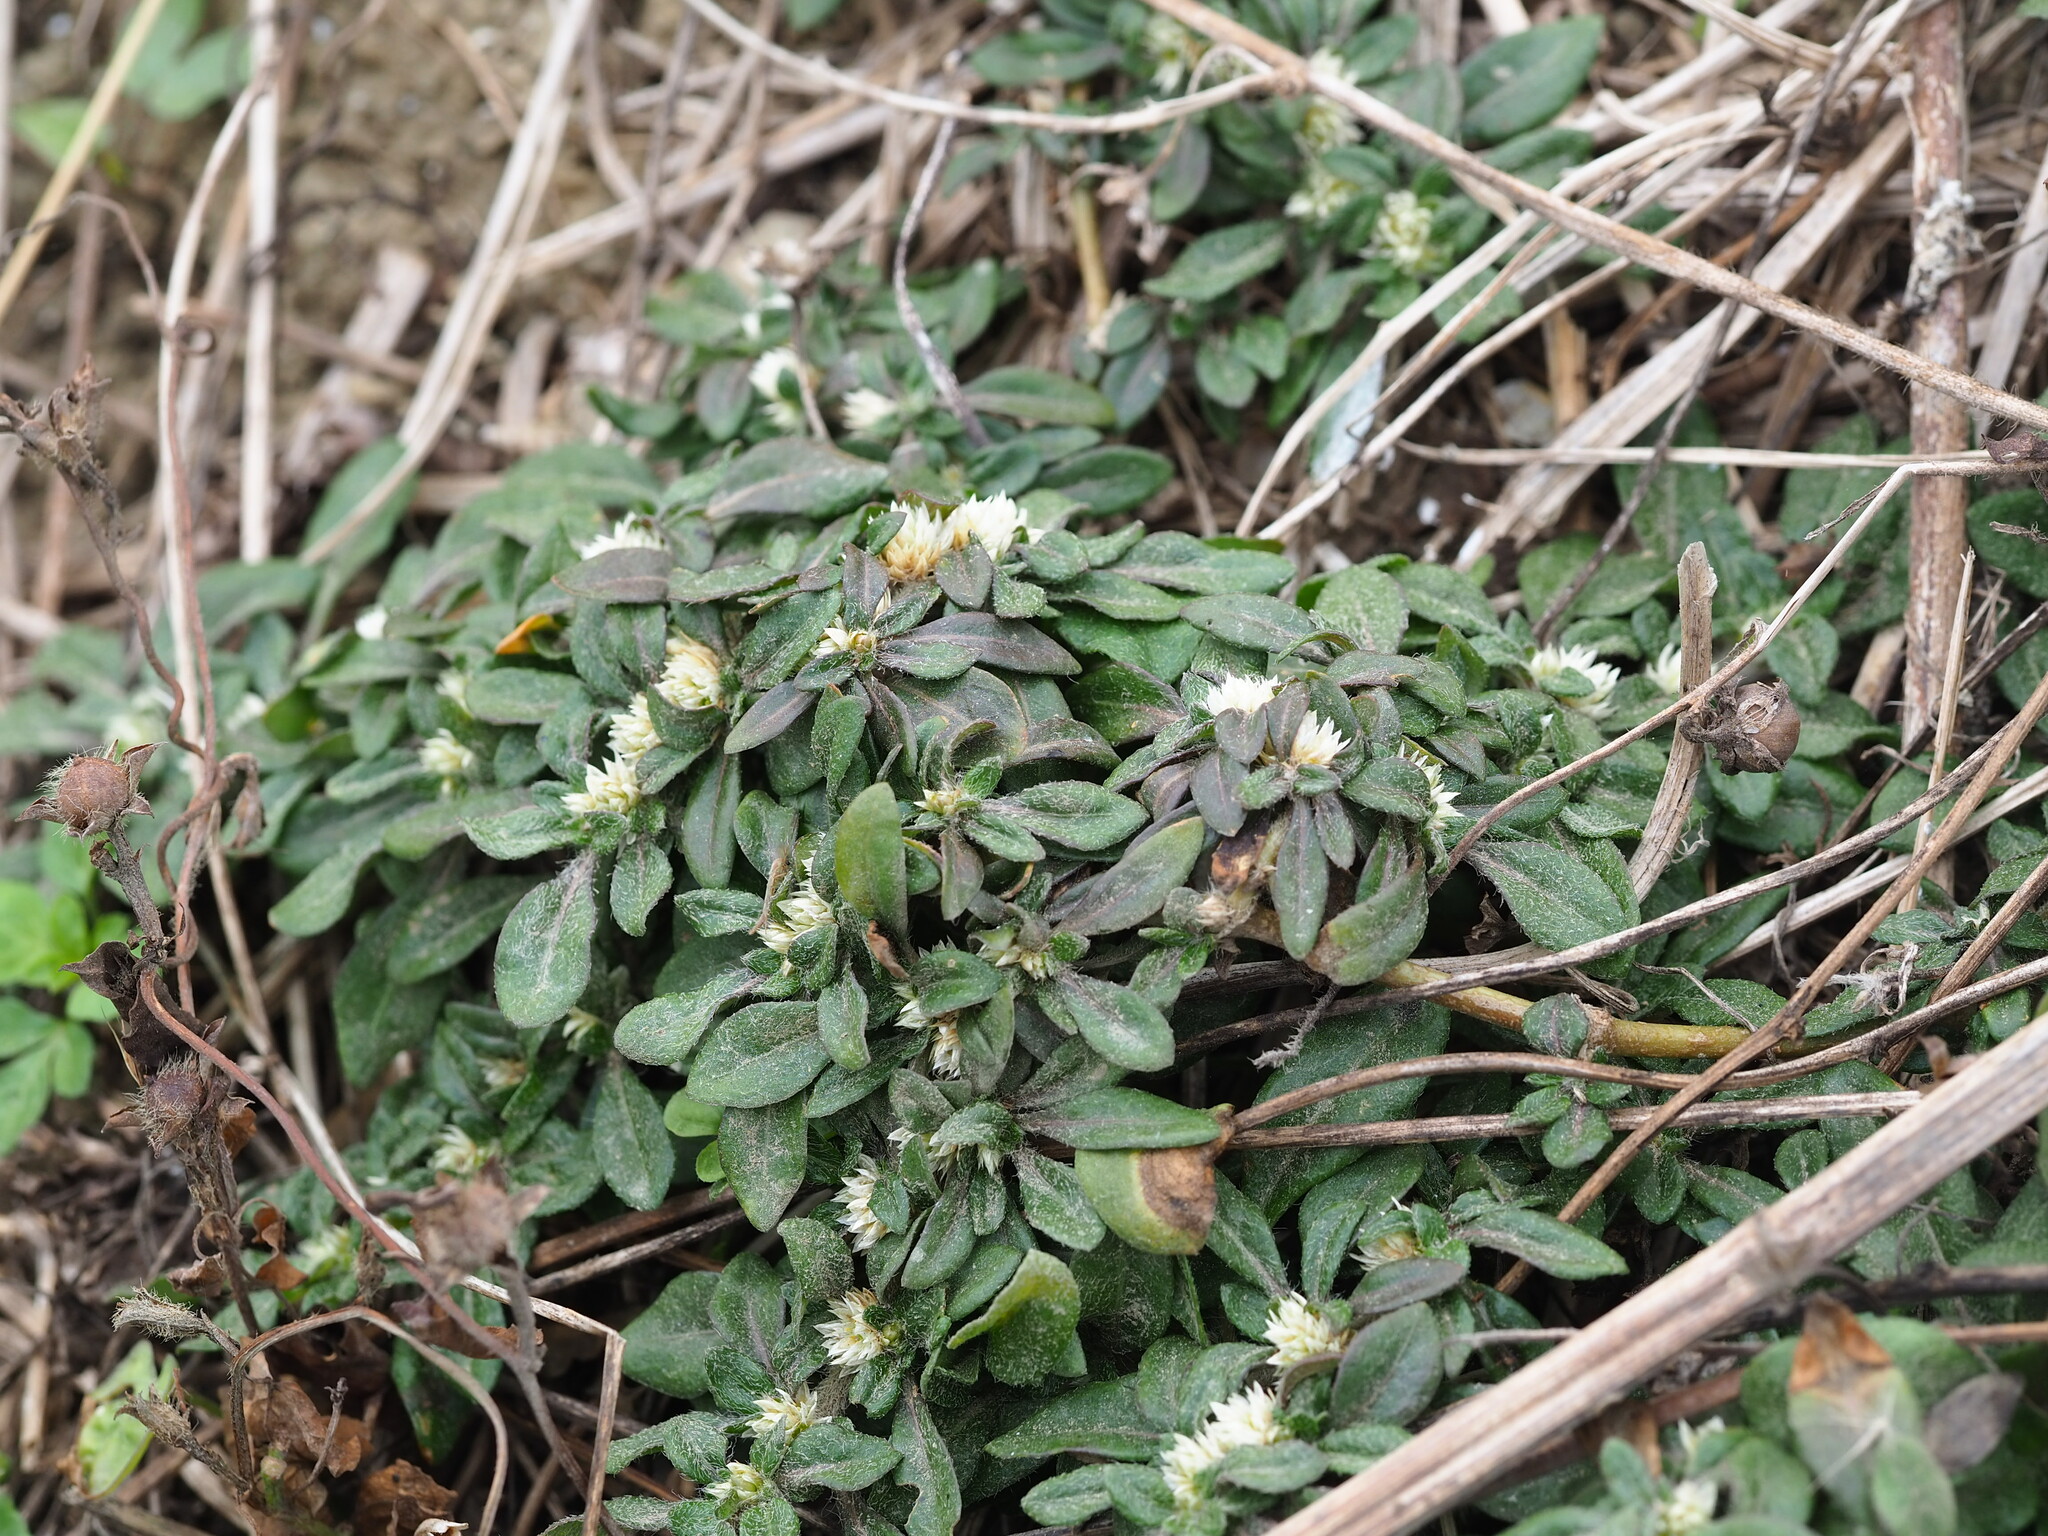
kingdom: Plantae
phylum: Tracheophyta
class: Magnoliopsida
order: Caryophyllales
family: Amaranthaceae
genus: Alternanthera
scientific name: Alternanthera paronychioides
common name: Smooth joyweed
